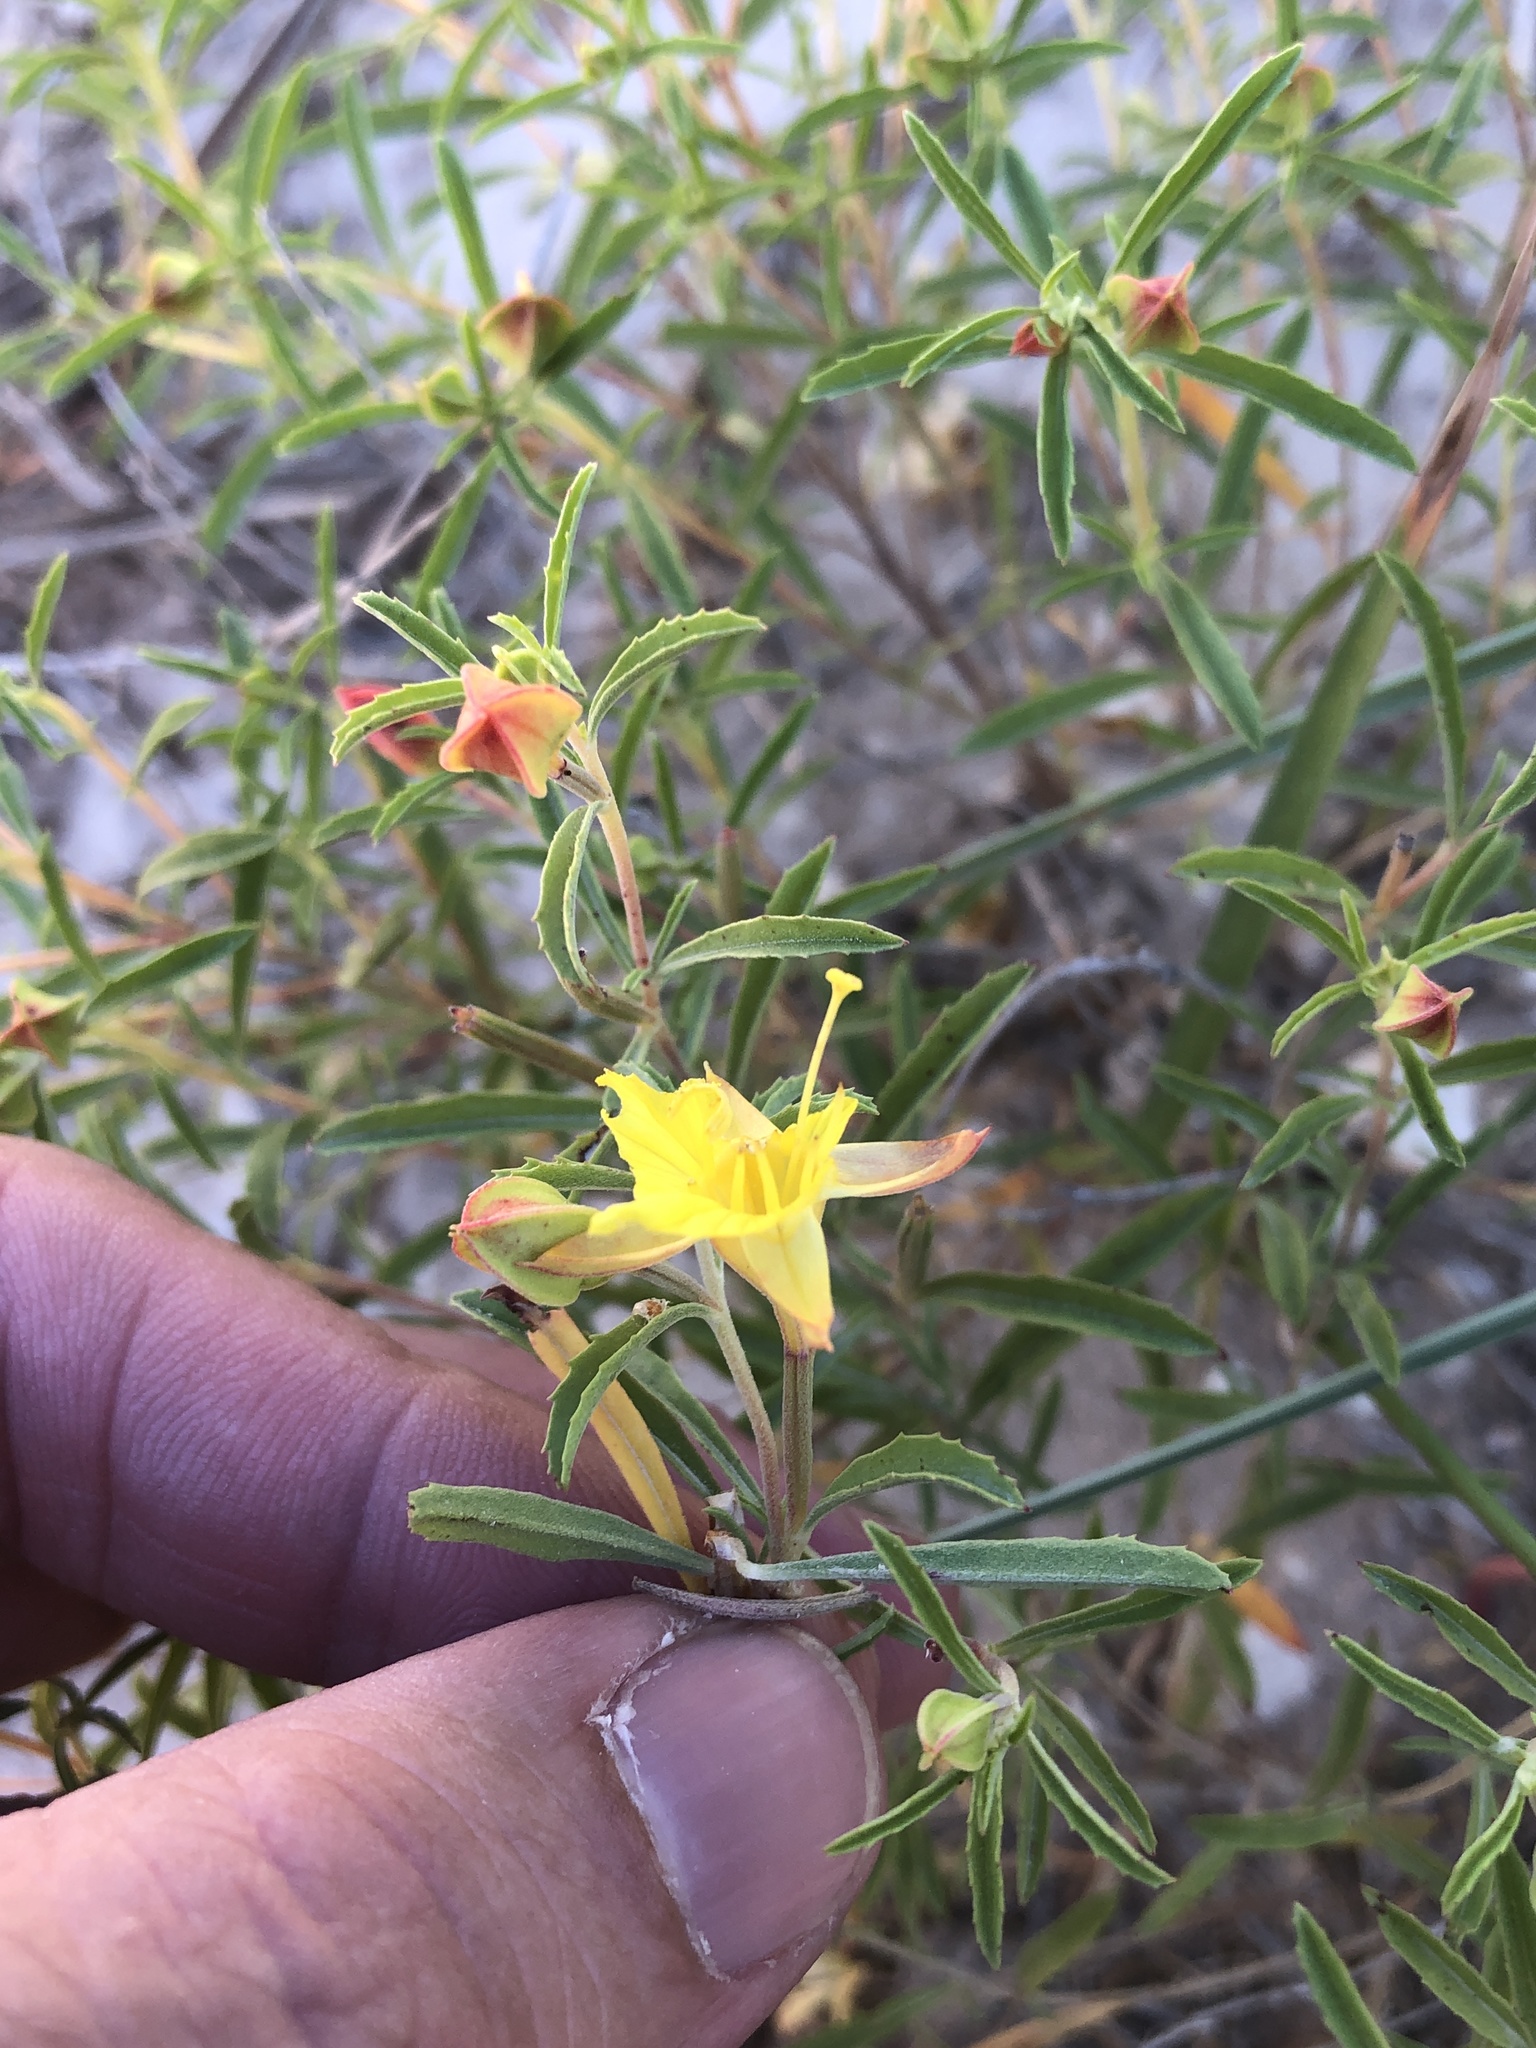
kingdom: Plantae
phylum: Tracheophyta
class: Magnoliopsida
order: Myrtales
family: Onagraceae
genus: Oenothera
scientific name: Oenothera serrulata
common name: Half-shrub calylophus
